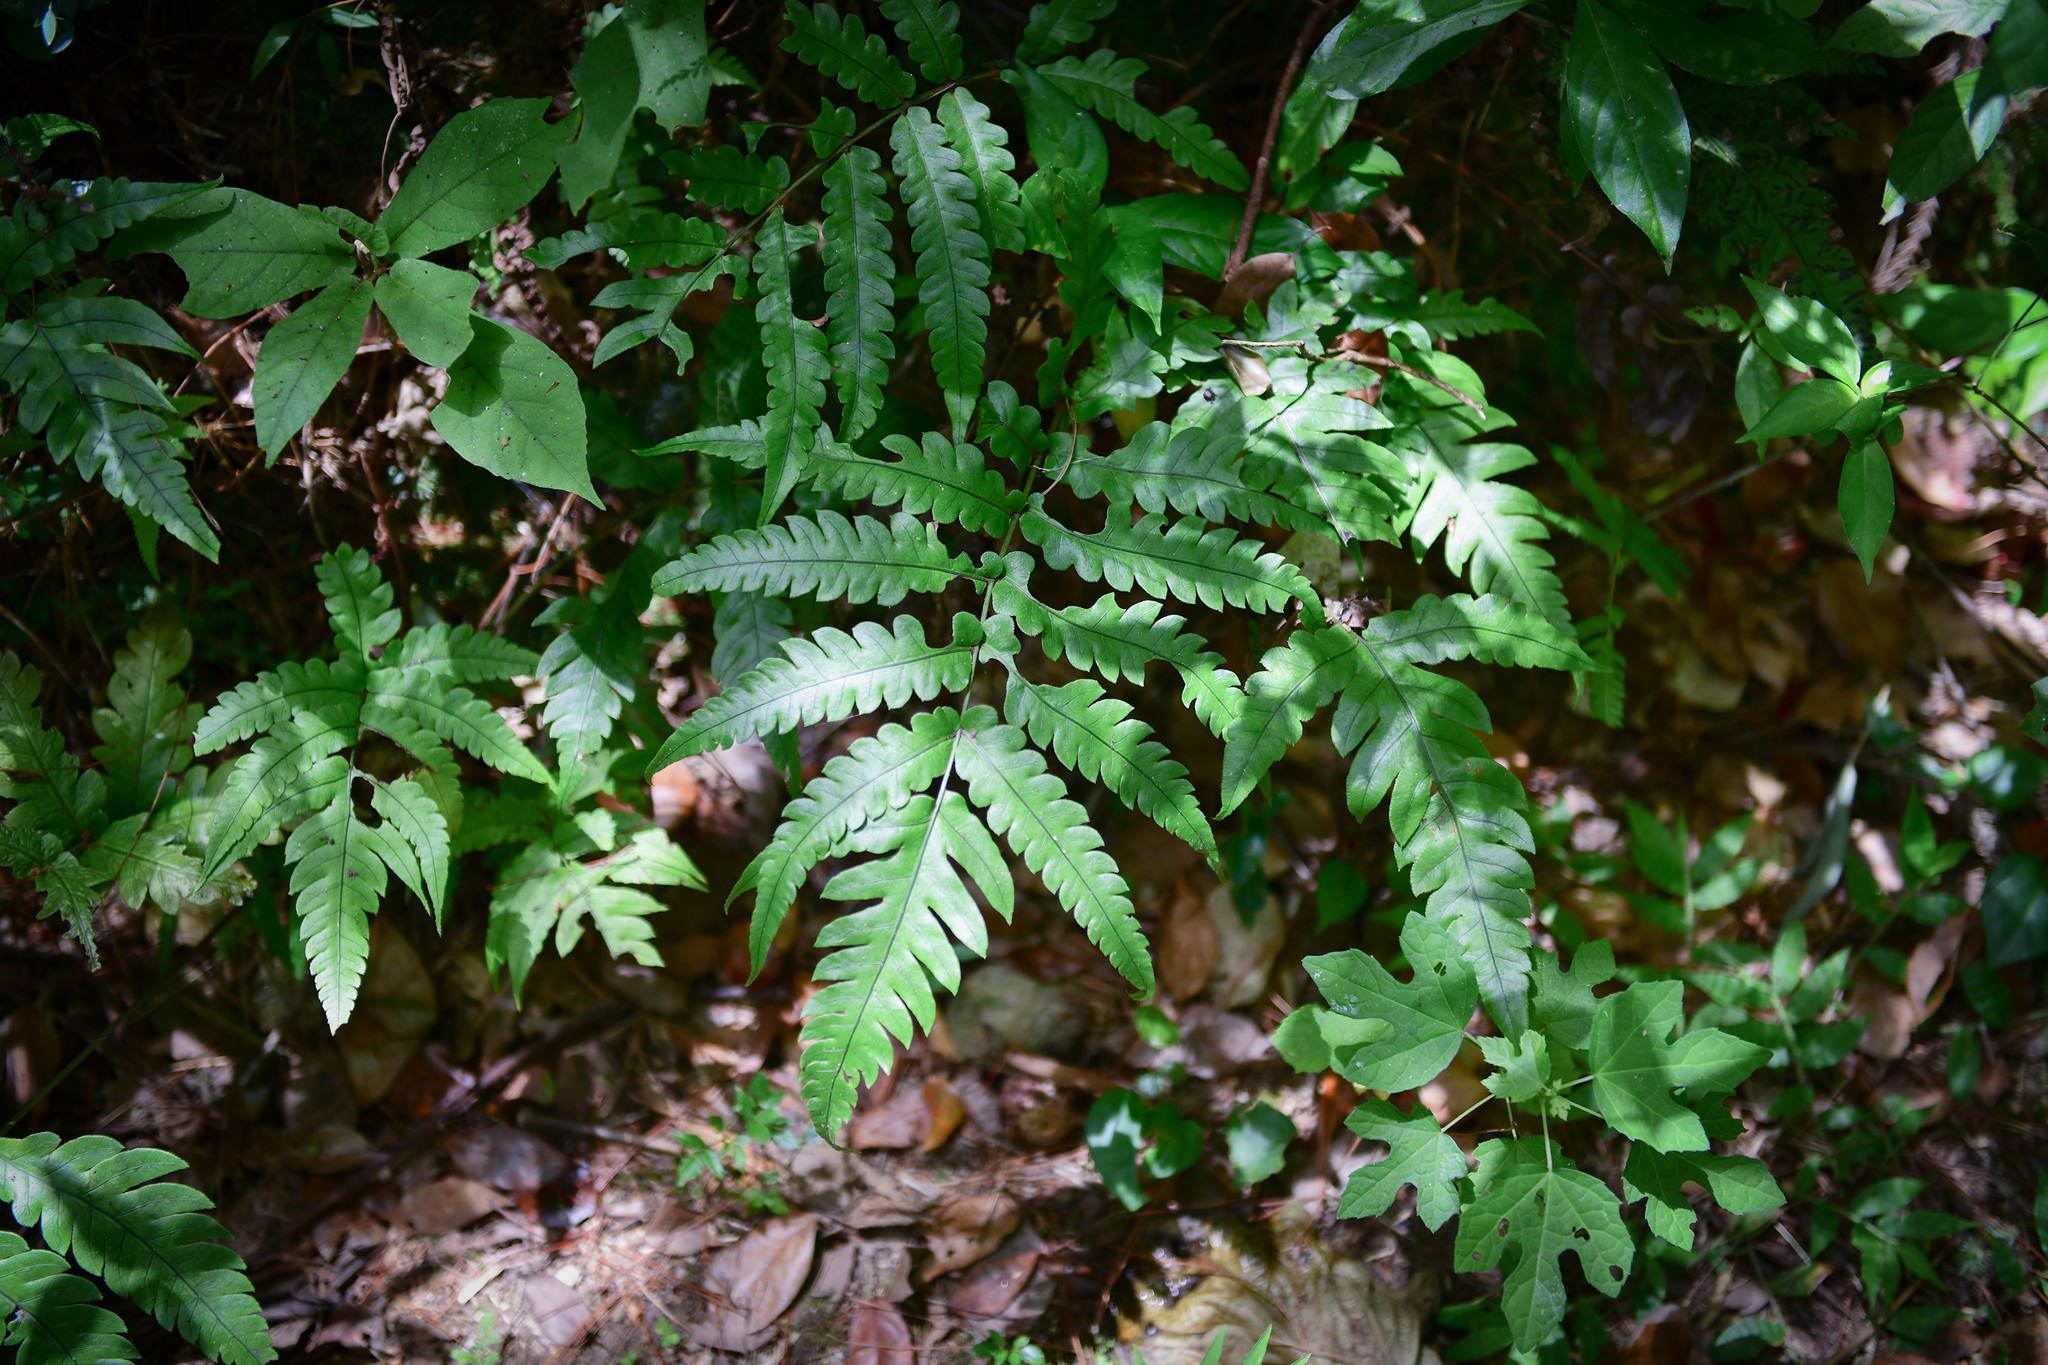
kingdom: Plantae
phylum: Tracheophyta
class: Polypodiopsida
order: Polypodiales
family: Blechnaceae
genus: Woodwardia
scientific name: Woodwardia japonica
